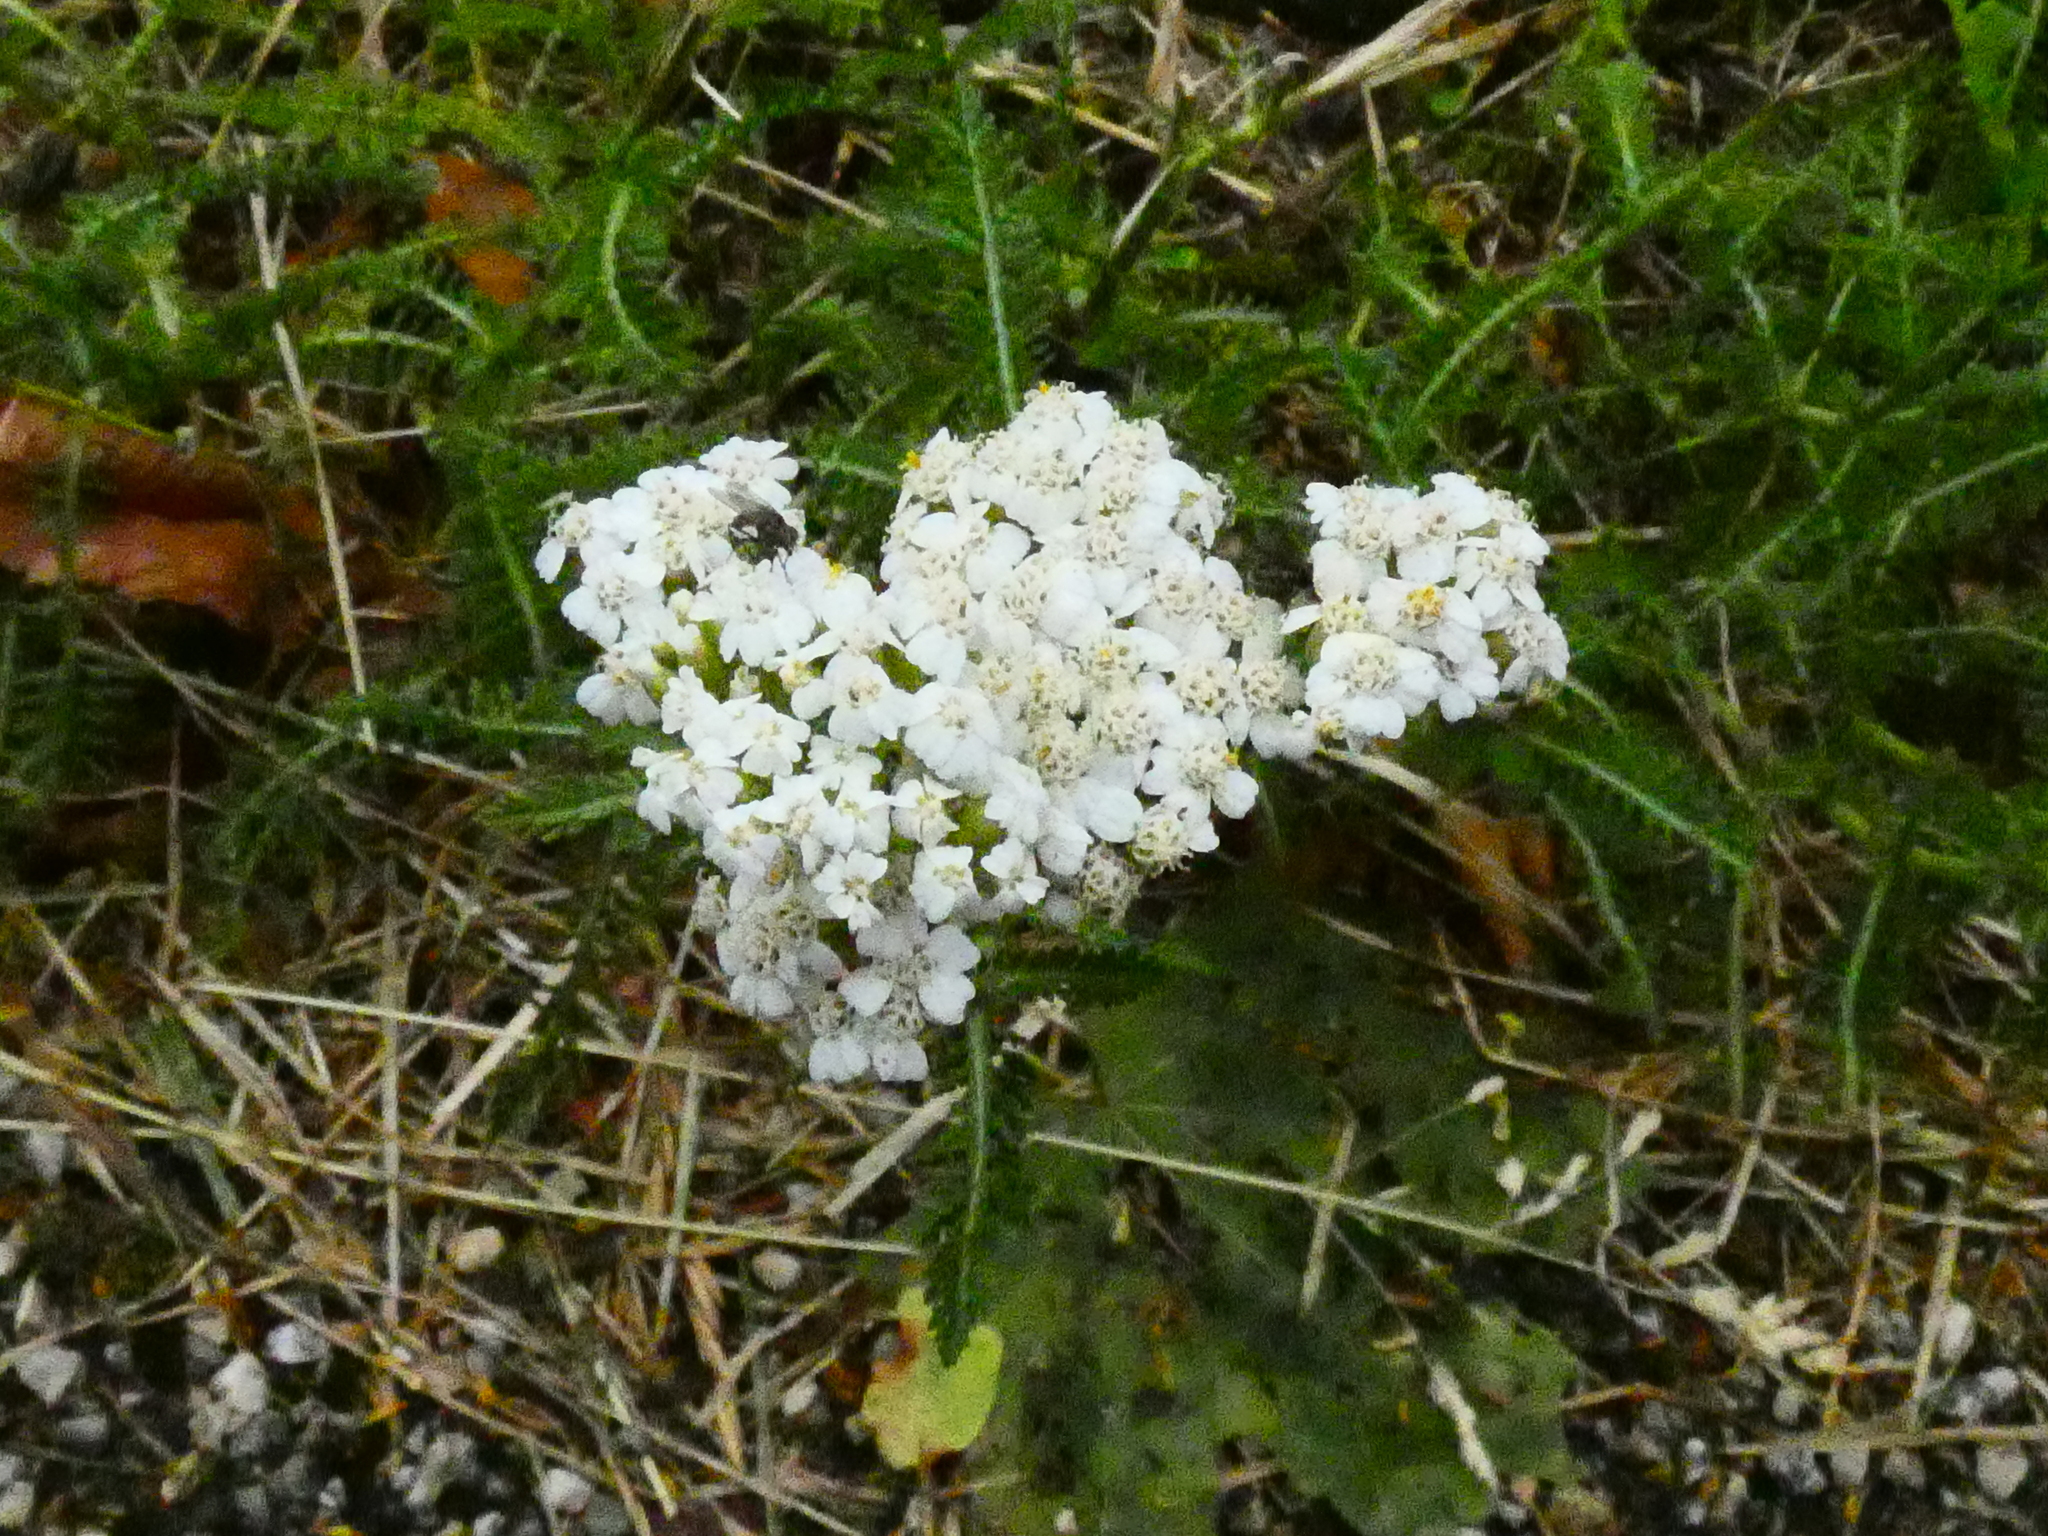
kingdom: Plantae
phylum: Tracheophyta
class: Magnoliopsida
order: Asterales
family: Asteraceae
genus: Achillea
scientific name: Achillea millefolium
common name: Yarrow
